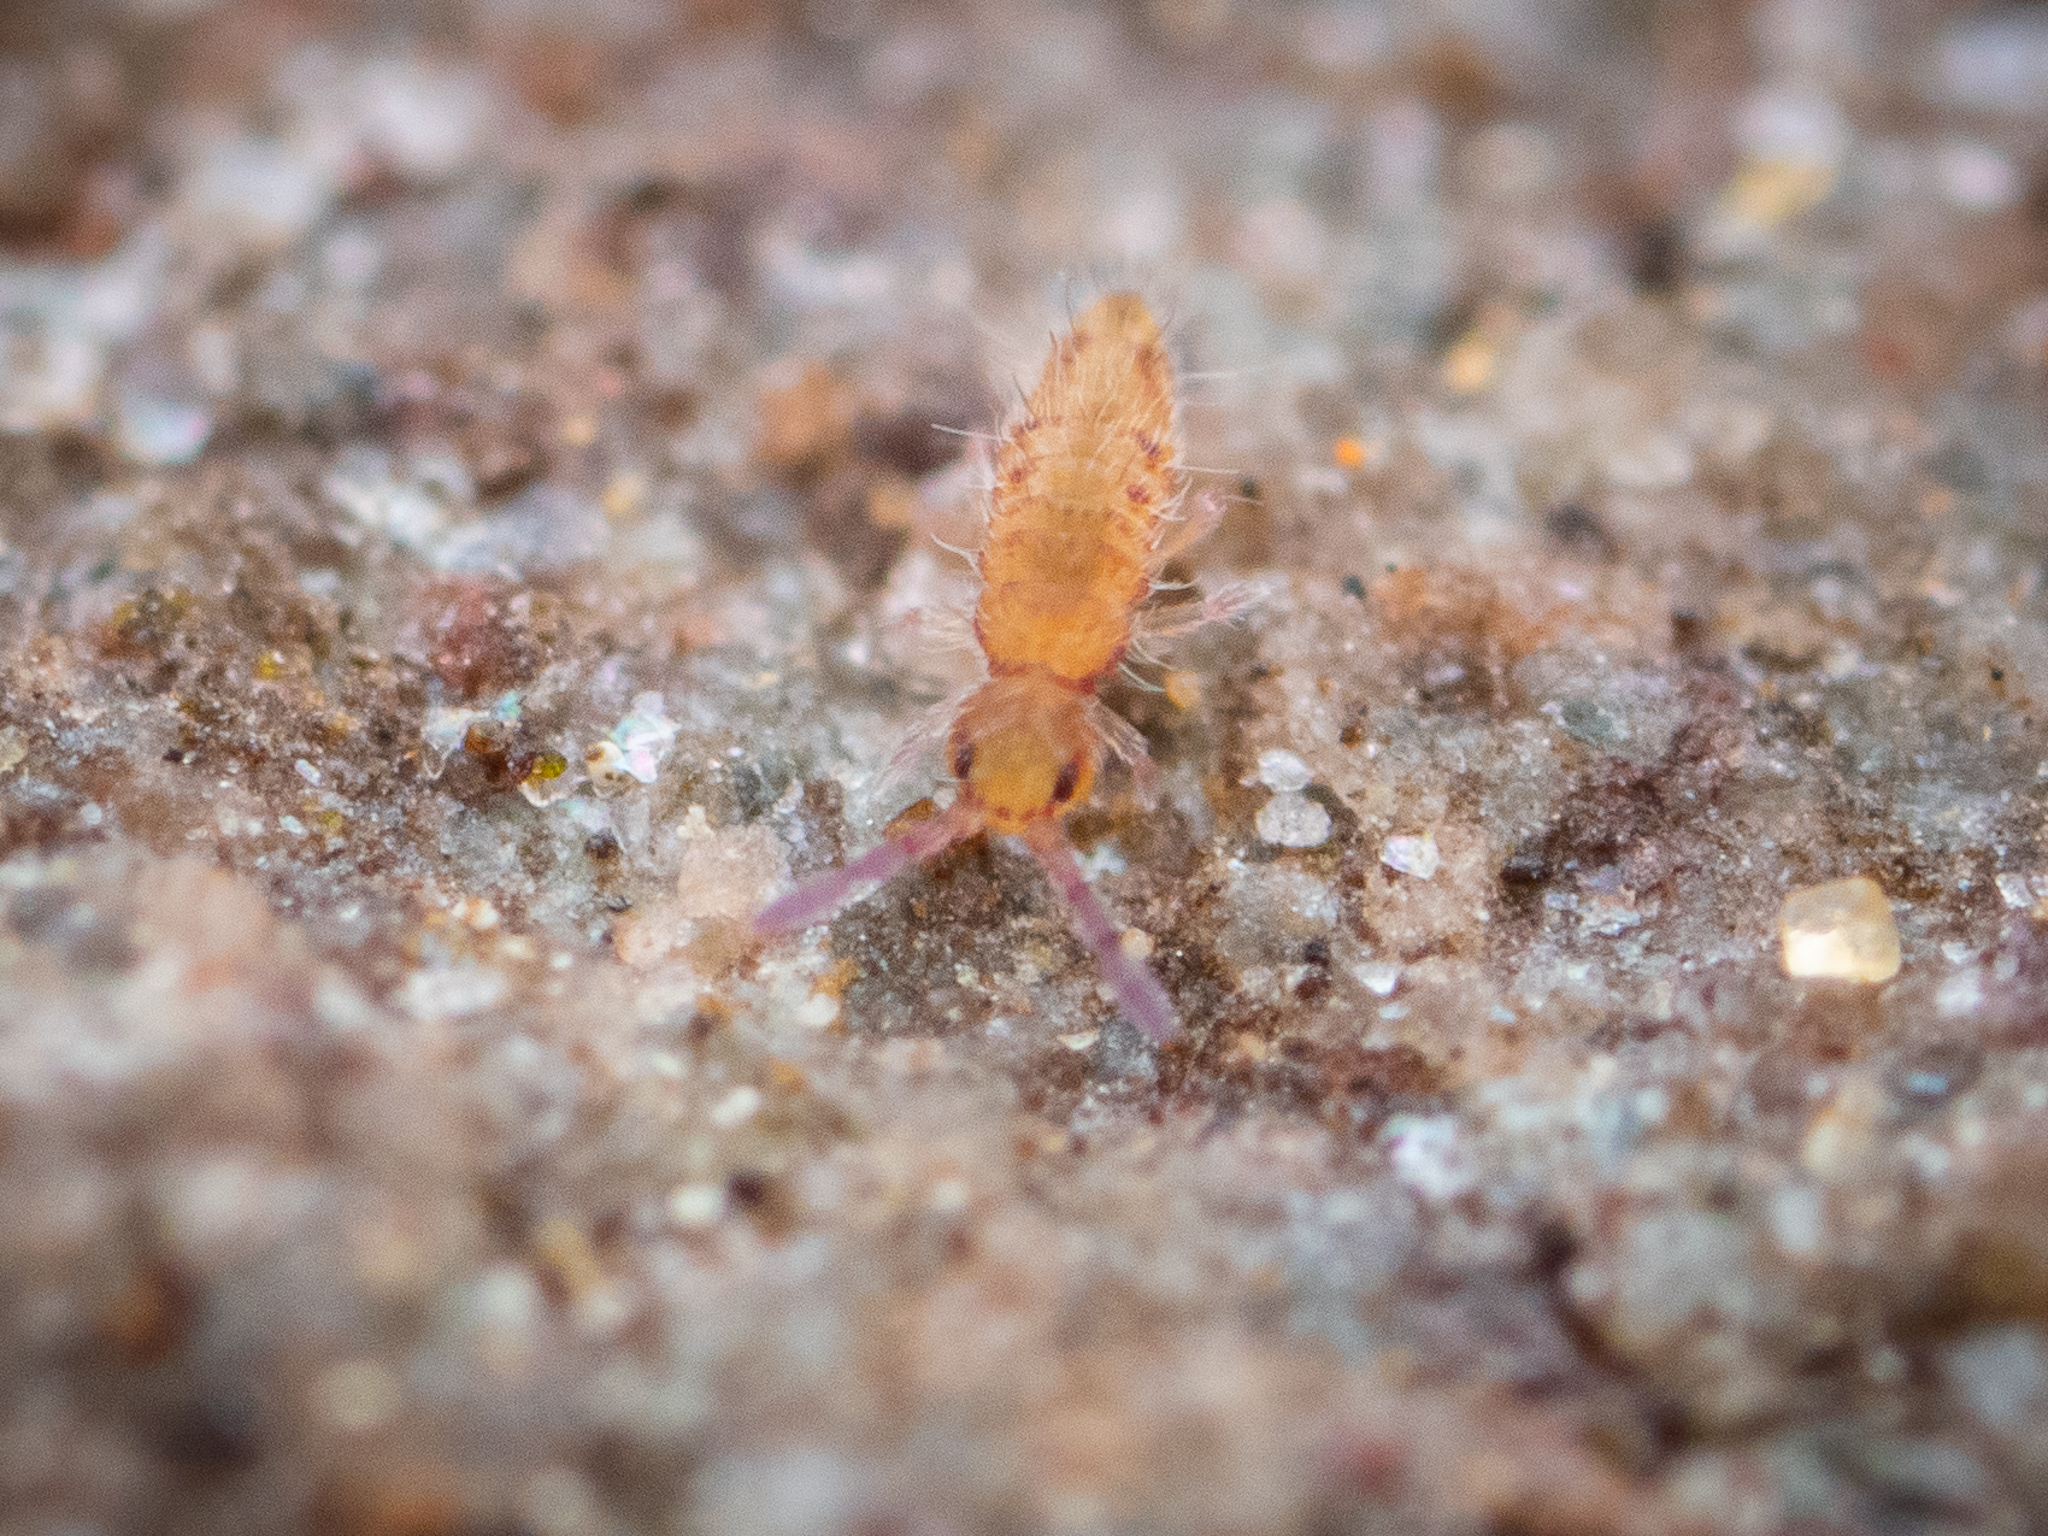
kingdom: Animalia
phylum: Arthropoda
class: Collembola
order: Entomobryomorpha
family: Entomobryidae
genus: Entomobrya
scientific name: Entomobrya multifasciata
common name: Springtail
